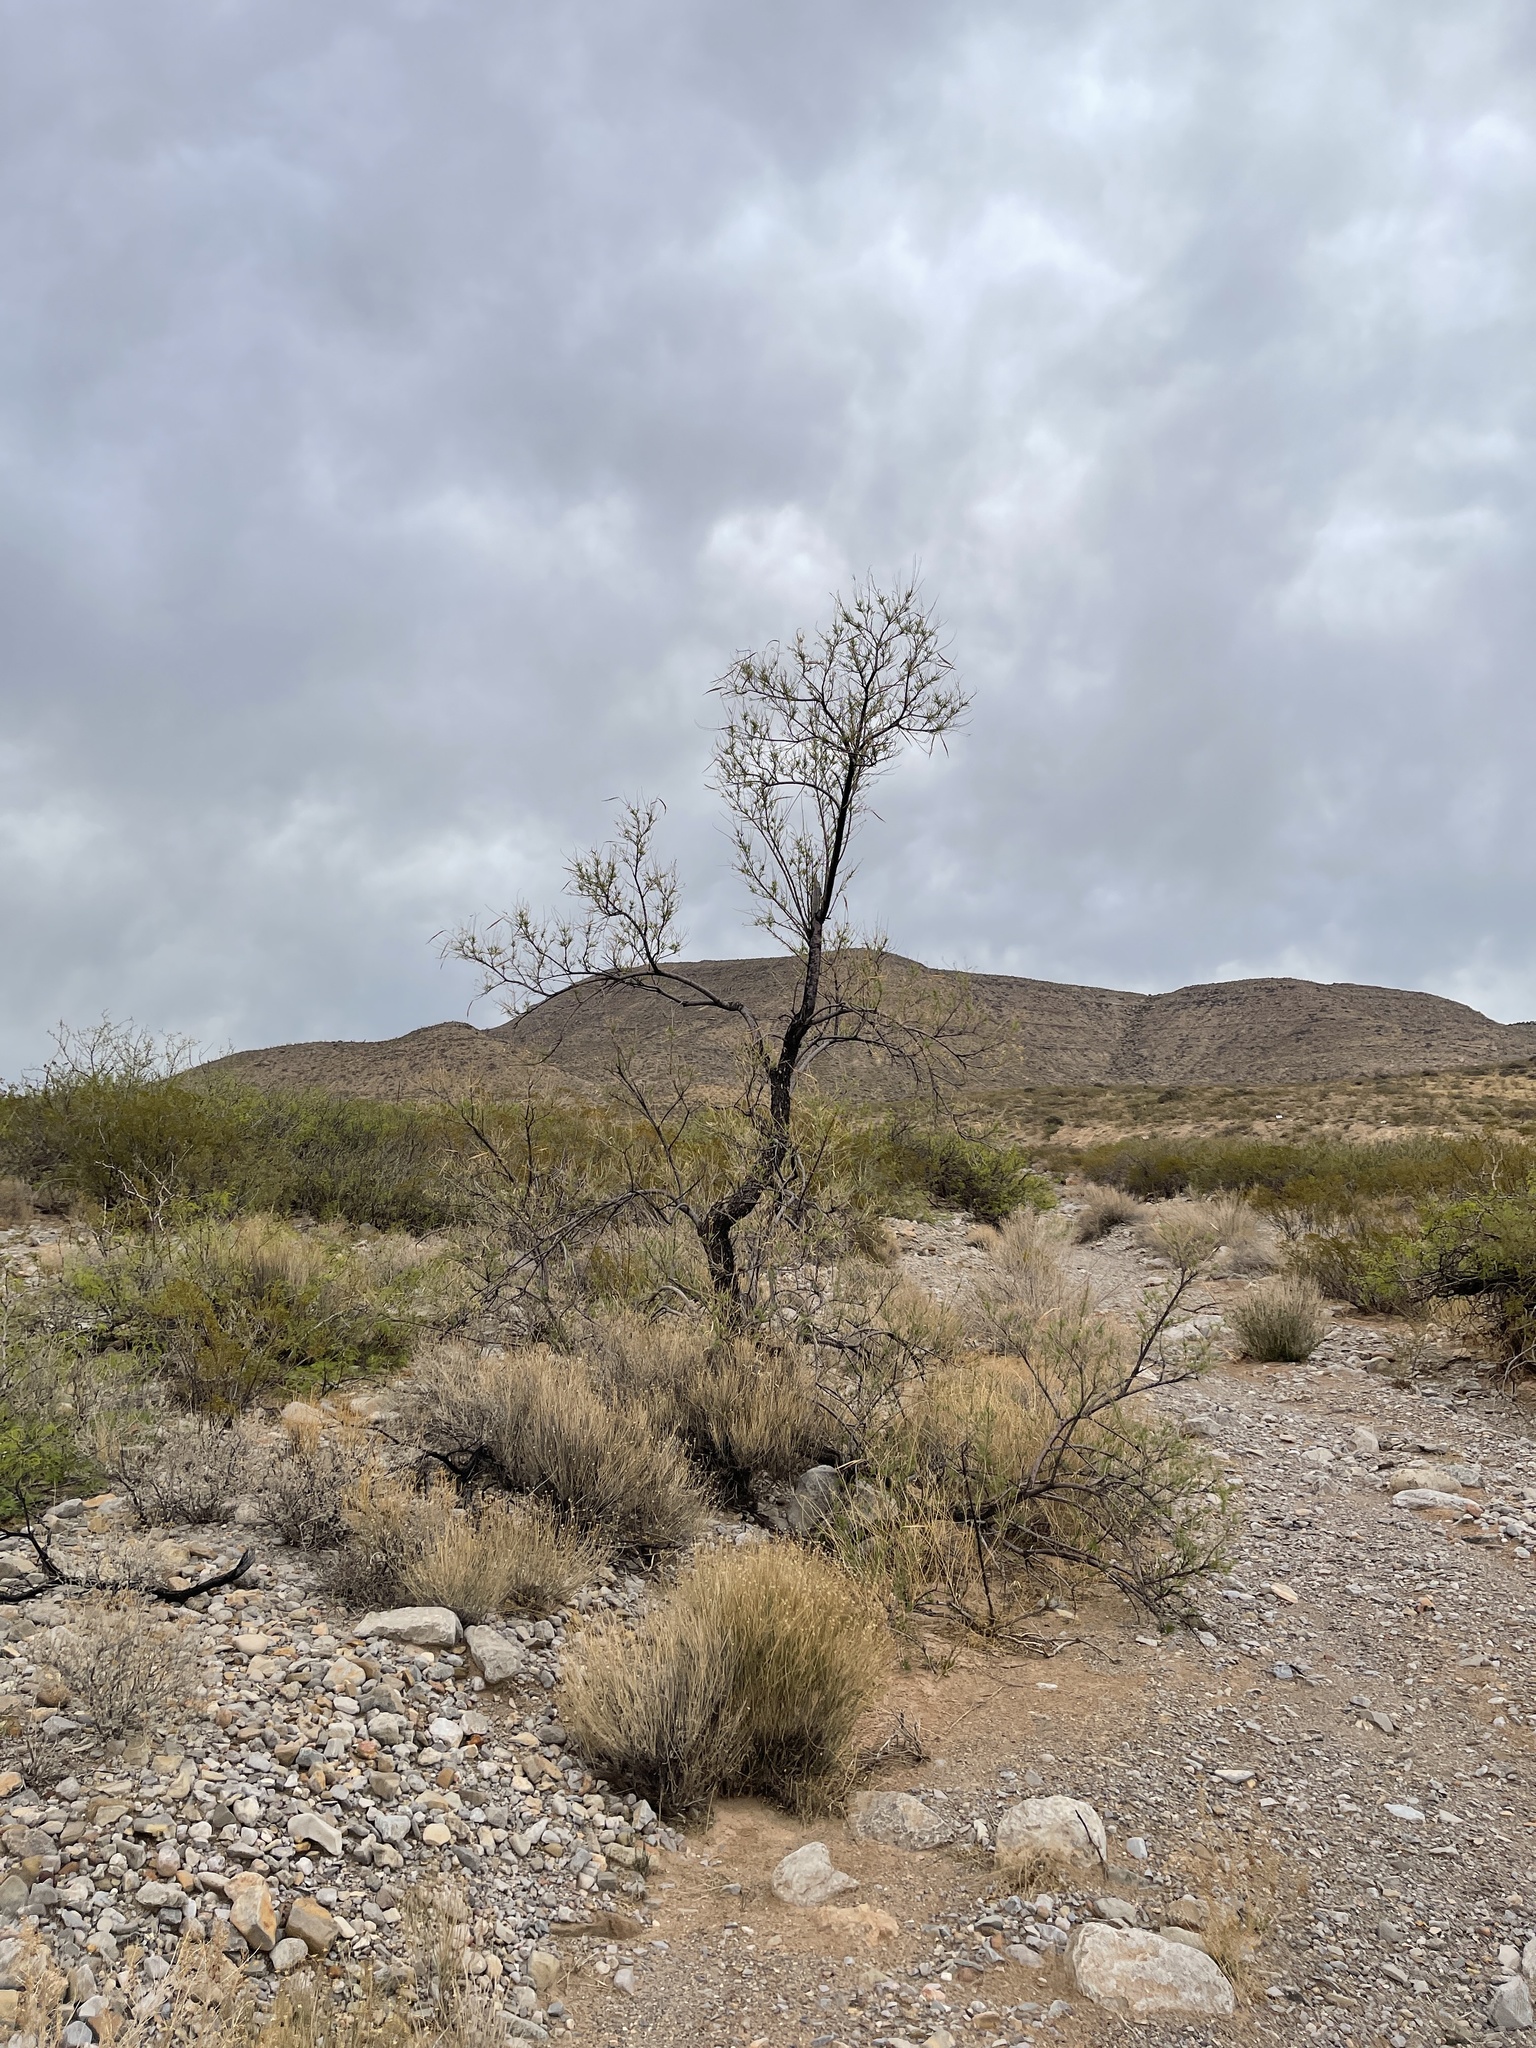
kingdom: Plantae
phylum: Tracheophyta
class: Magnoliopsida
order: Lamiales
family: Bignoniaceae
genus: Chilopsis
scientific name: Chilopsis linearis
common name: Desert-willow
